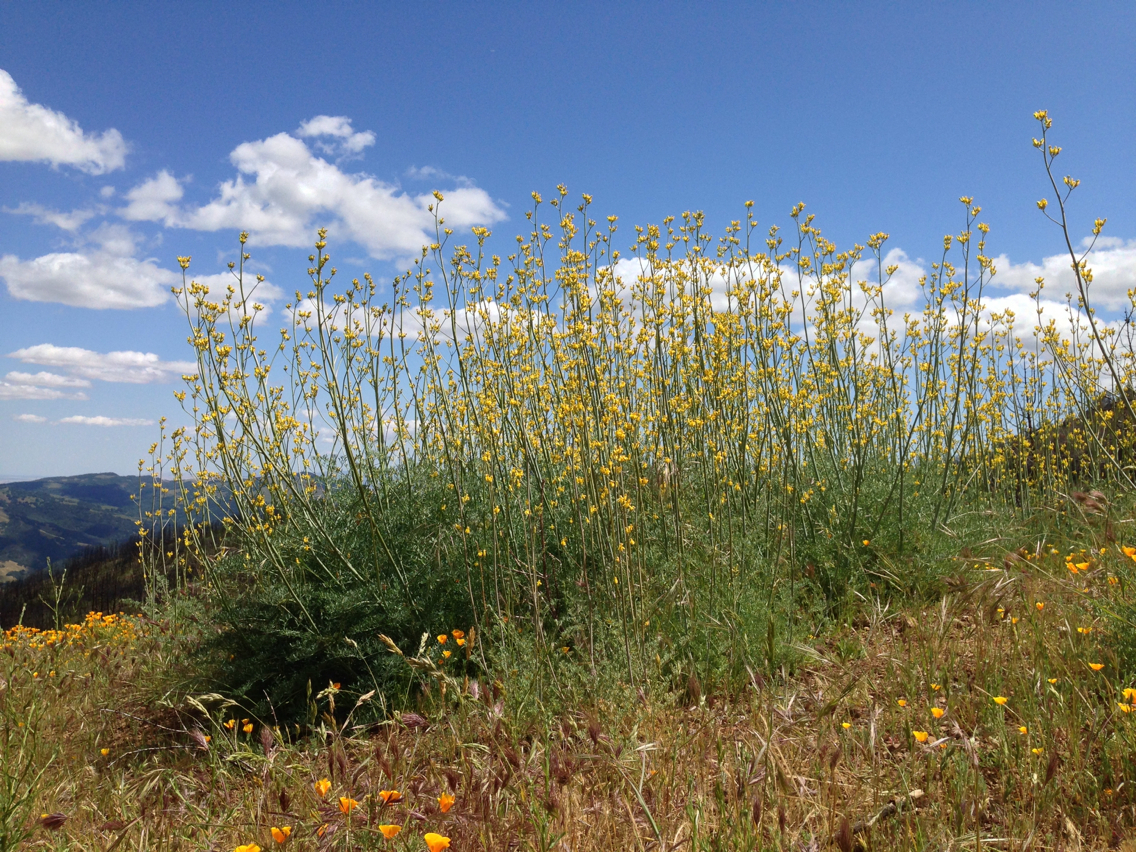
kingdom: Plantae
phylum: Tracheophyta
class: Magnoliopsida
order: Ranunculales
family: Papaveraceae
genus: Ehrendorferia
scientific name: Ehrendorferia chrysantha
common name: Golden eardrops
